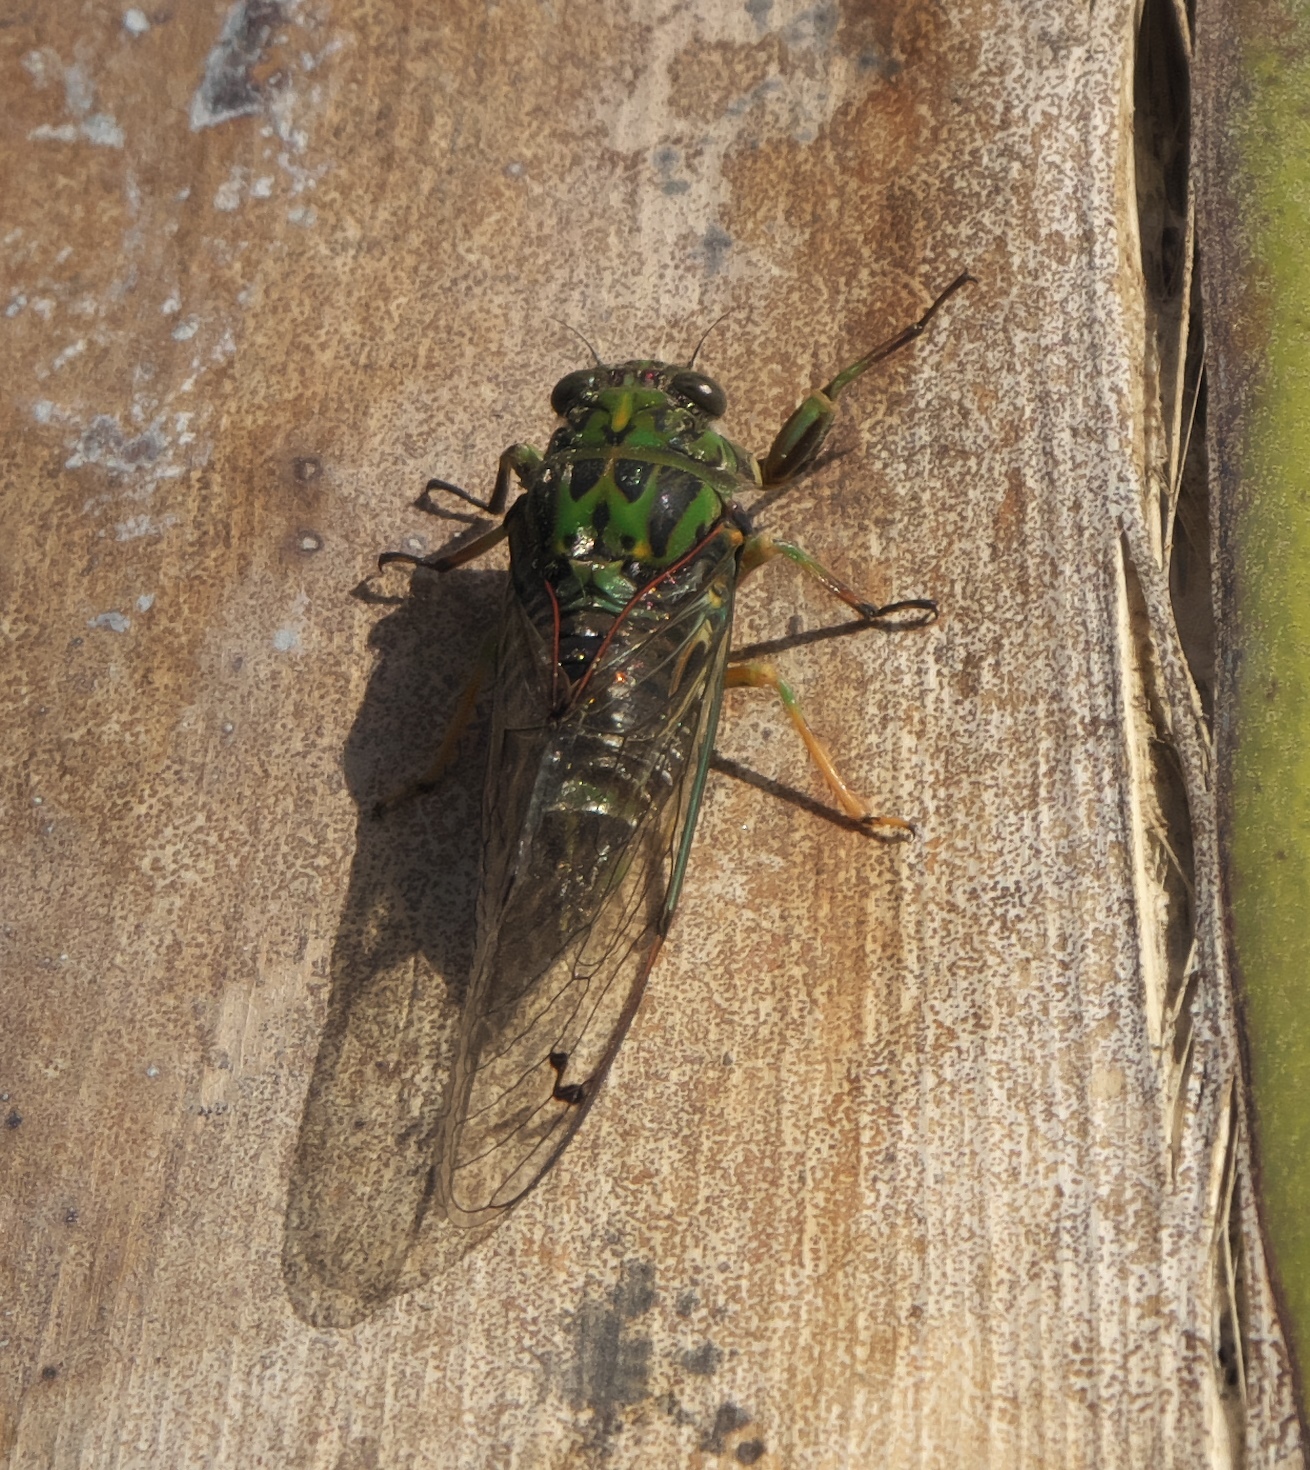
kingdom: Animalia
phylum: Arthropoda
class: Insecta
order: Hemiptera
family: Cicadidae
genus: Amphipsalta
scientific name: Amphipsalta zelandica
